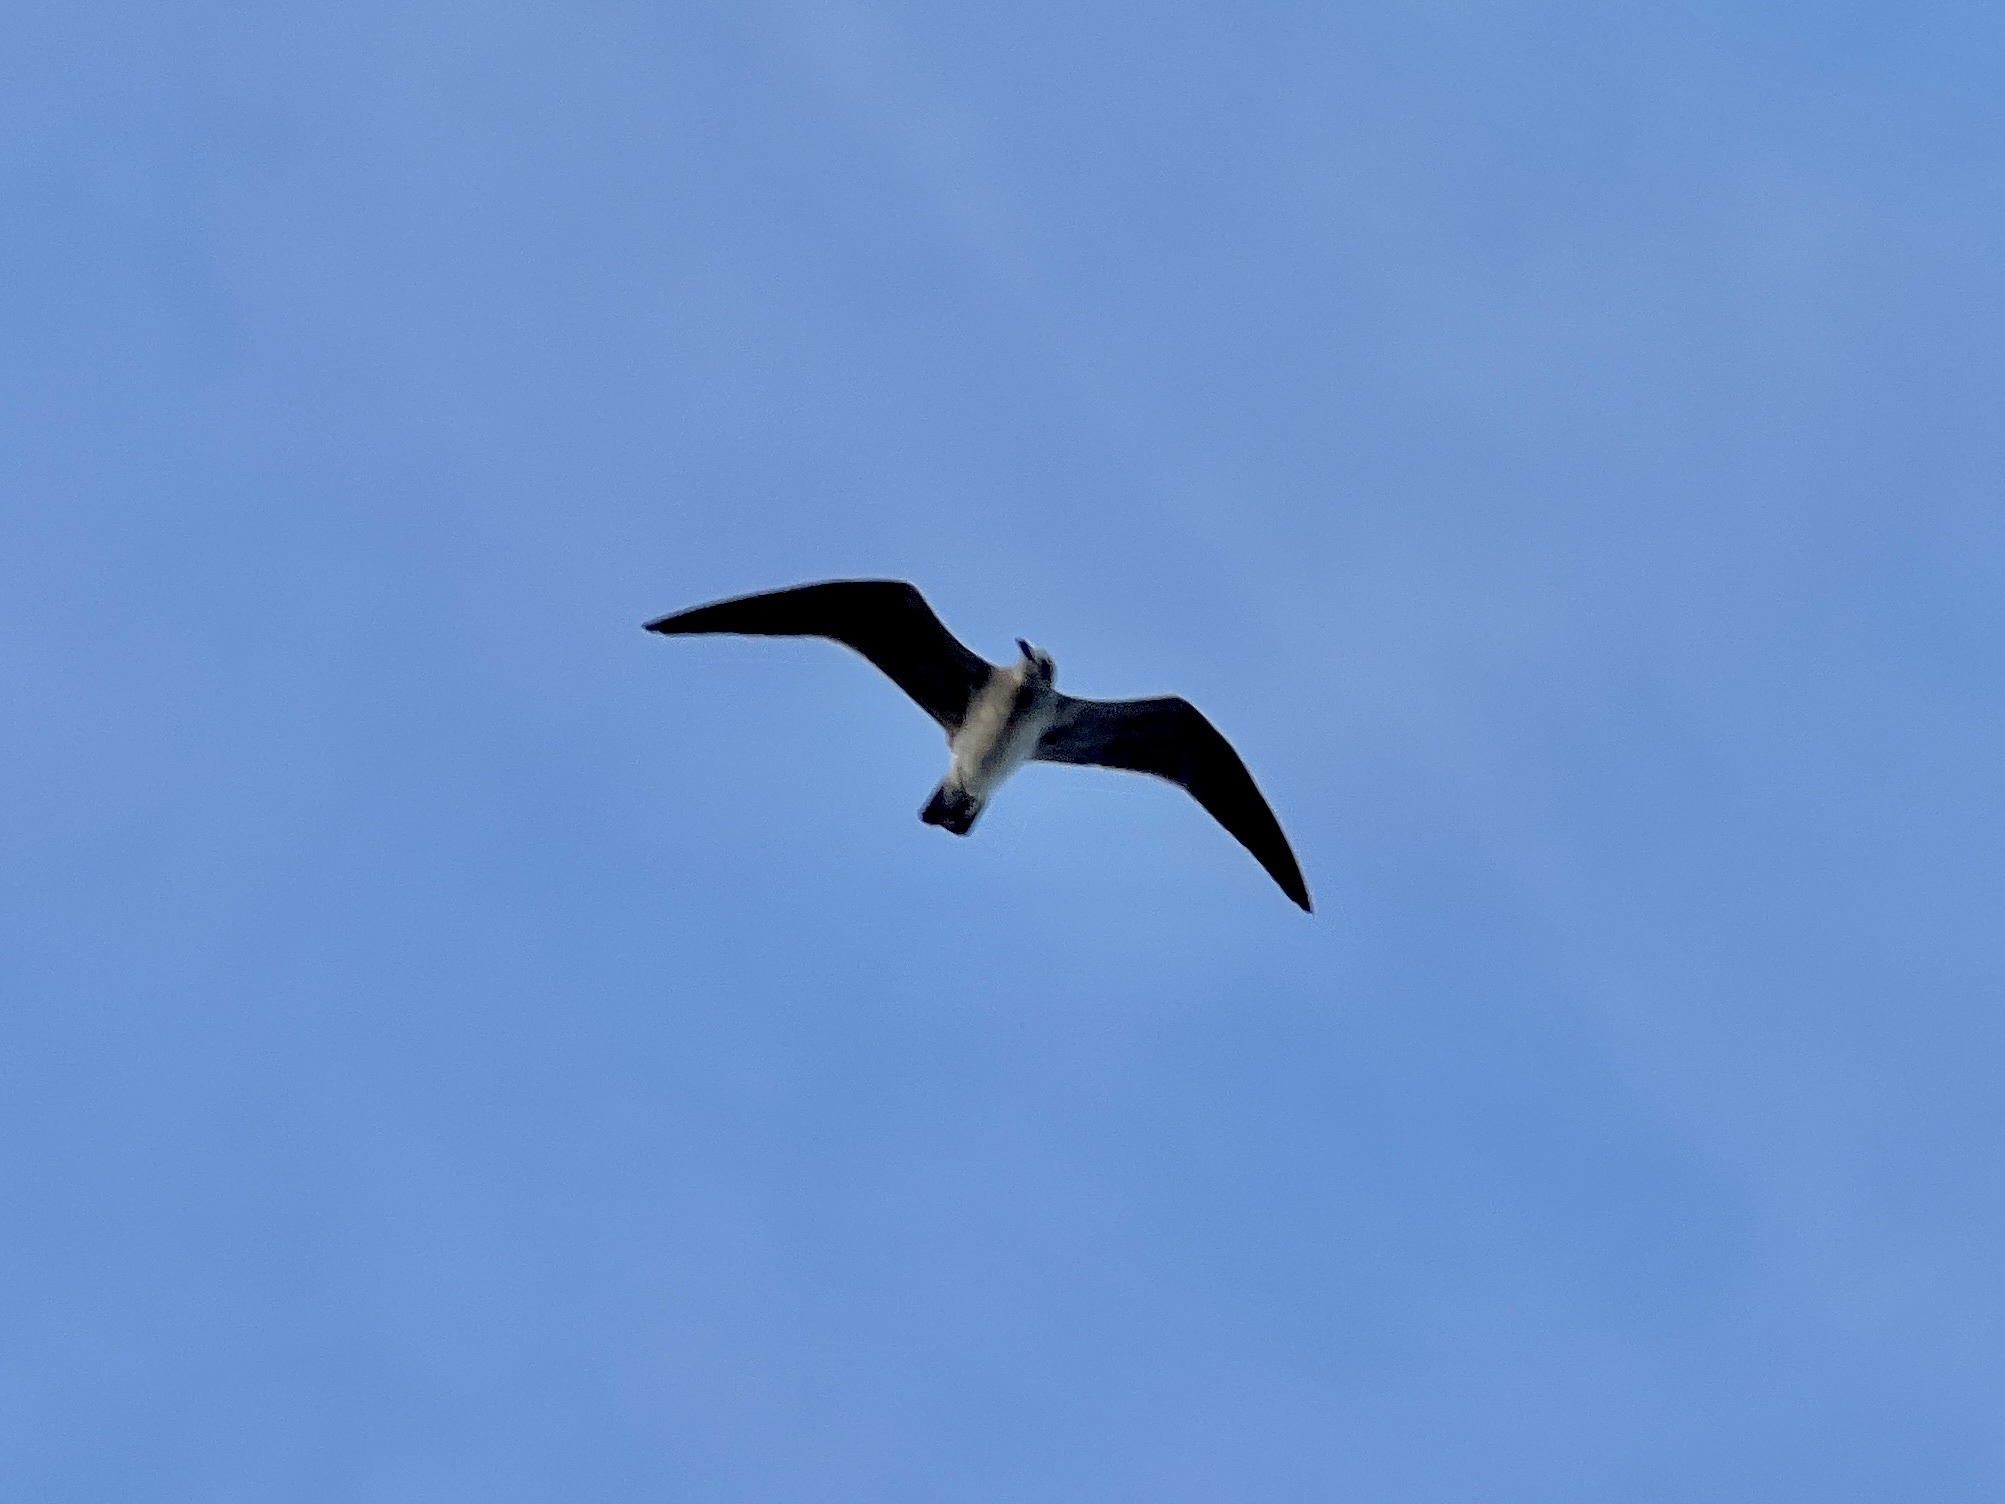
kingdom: Animalia
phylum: Chordata
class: Aves
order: Charadriiformes
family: Laridae
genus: Leucophaeus
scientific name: Leucophaeus atricilla
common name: Laughing gull
